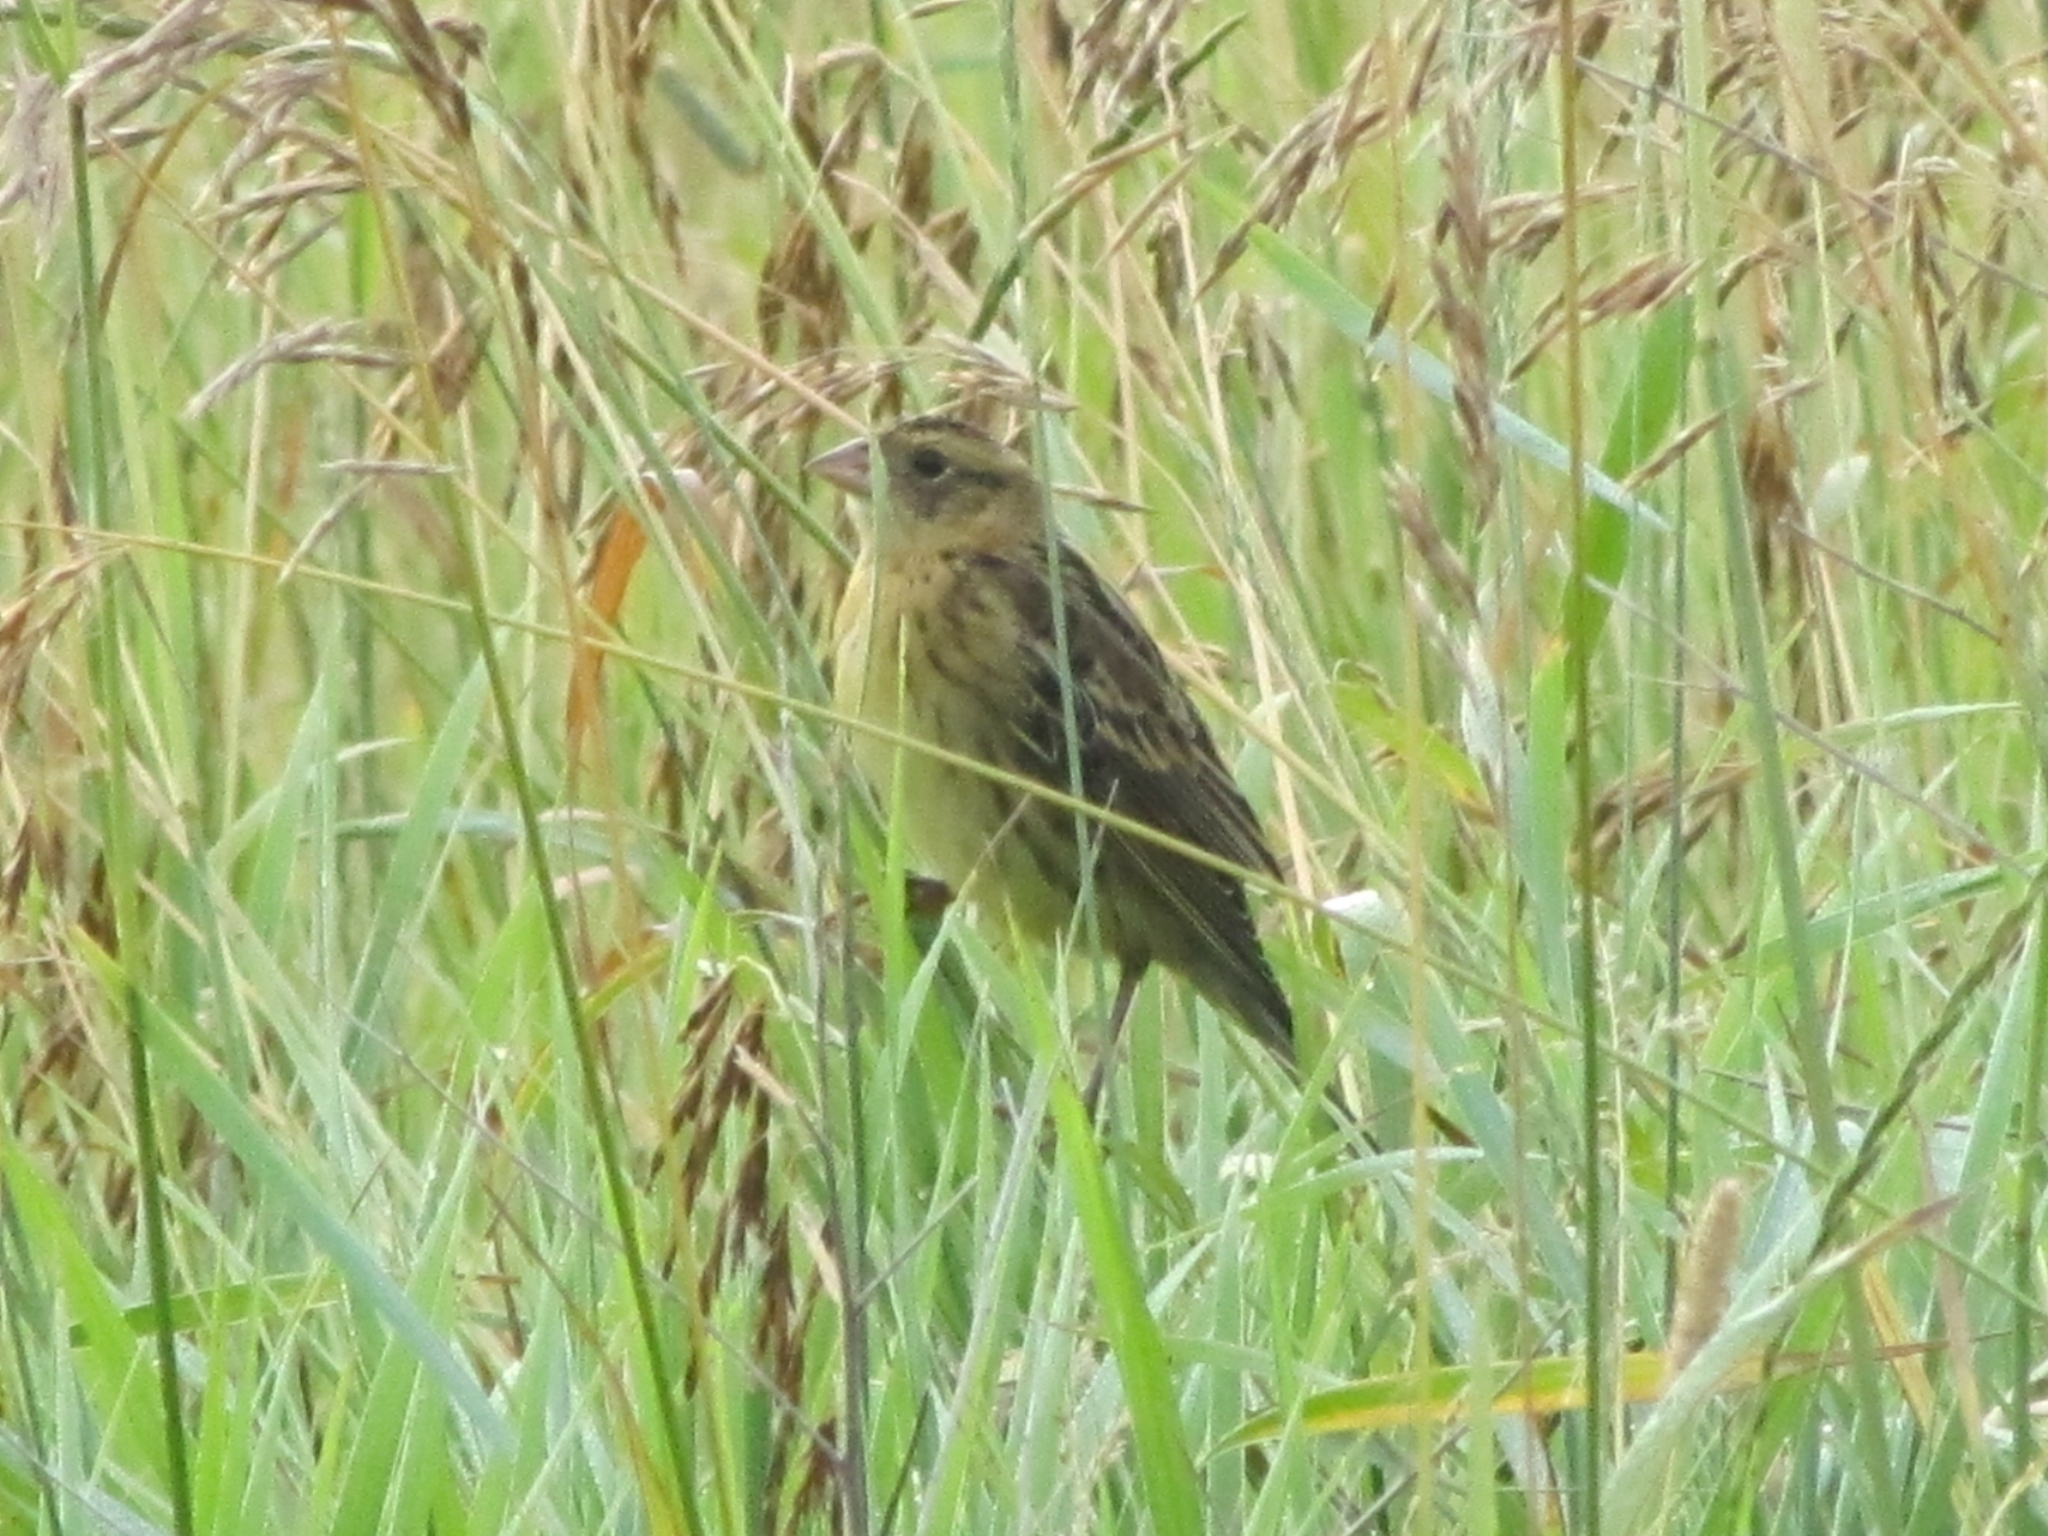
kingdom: Animalia
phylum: Chordata
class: Aves
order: Passeriformes
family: Icteridae
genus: Dolichonyx
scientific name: Dolichonyx oryzivorus
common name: Bobolink
